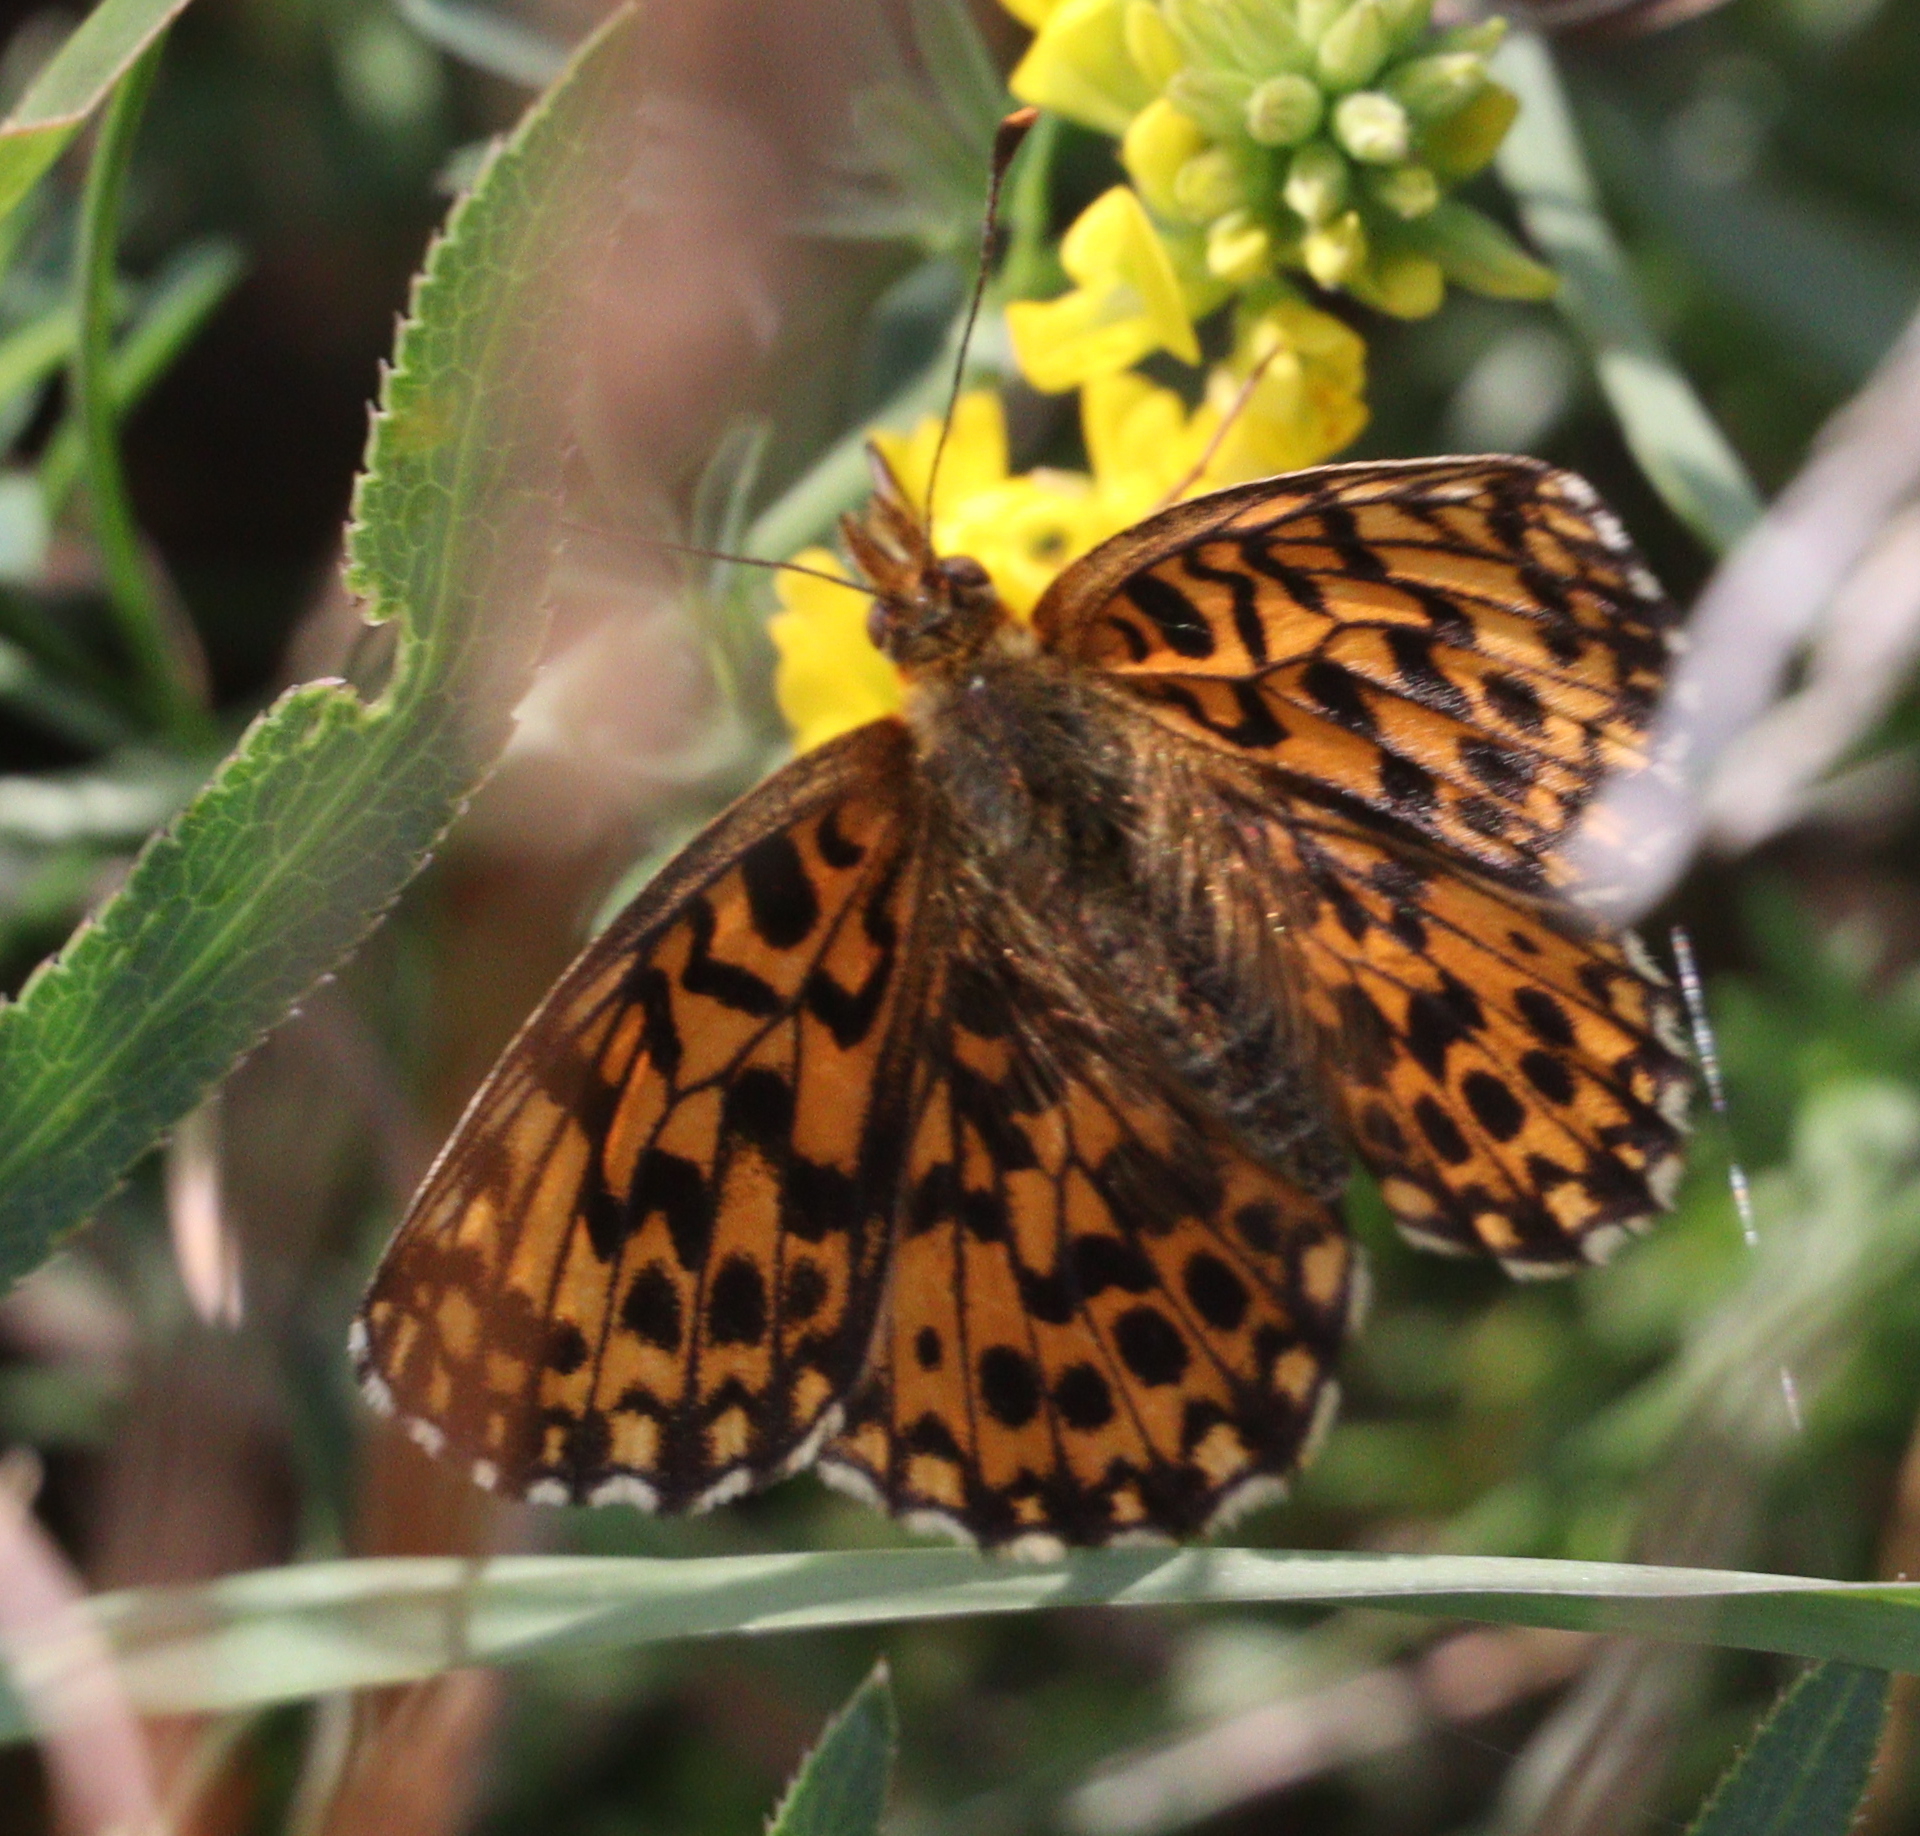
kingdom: Animalia
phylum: Arthropoda
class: Insecta
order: Lepidoptera
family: Nymphalidae
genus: Boloria
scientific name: Boloria dia
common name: Weaver's fritillary
